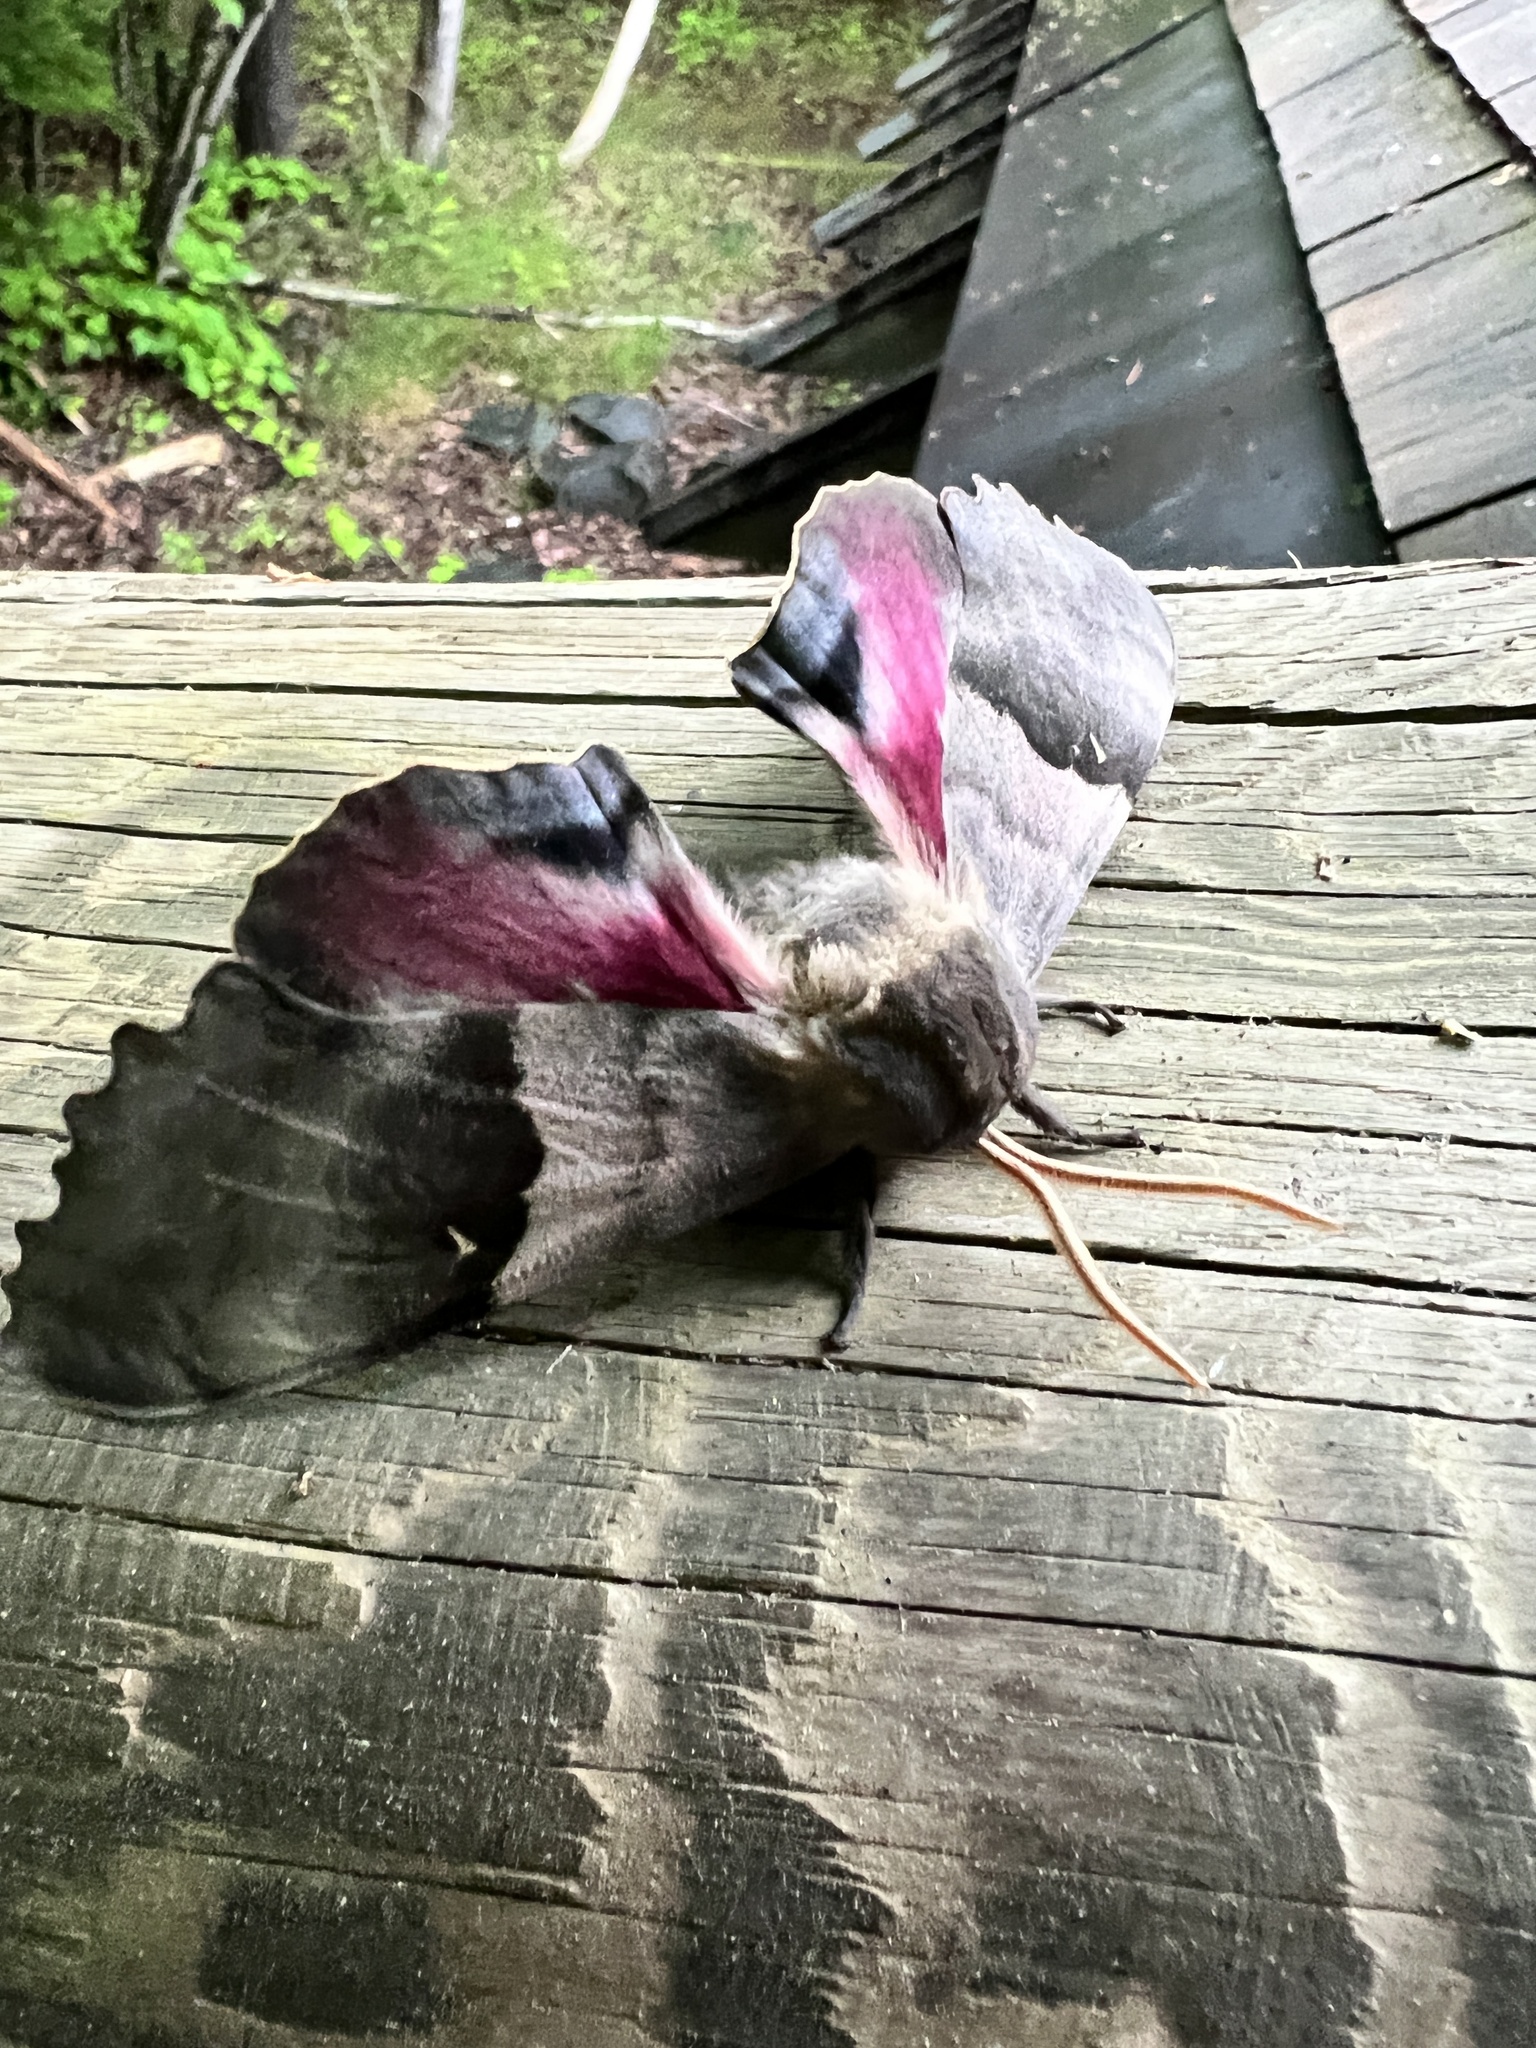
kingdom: Animalia
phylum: Arthropoda
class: Insecta
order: Lepidoptera
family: Sphingidae
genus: Pachysphinx
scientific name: Pachysphinx modesta
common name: Big poplar sphinx
